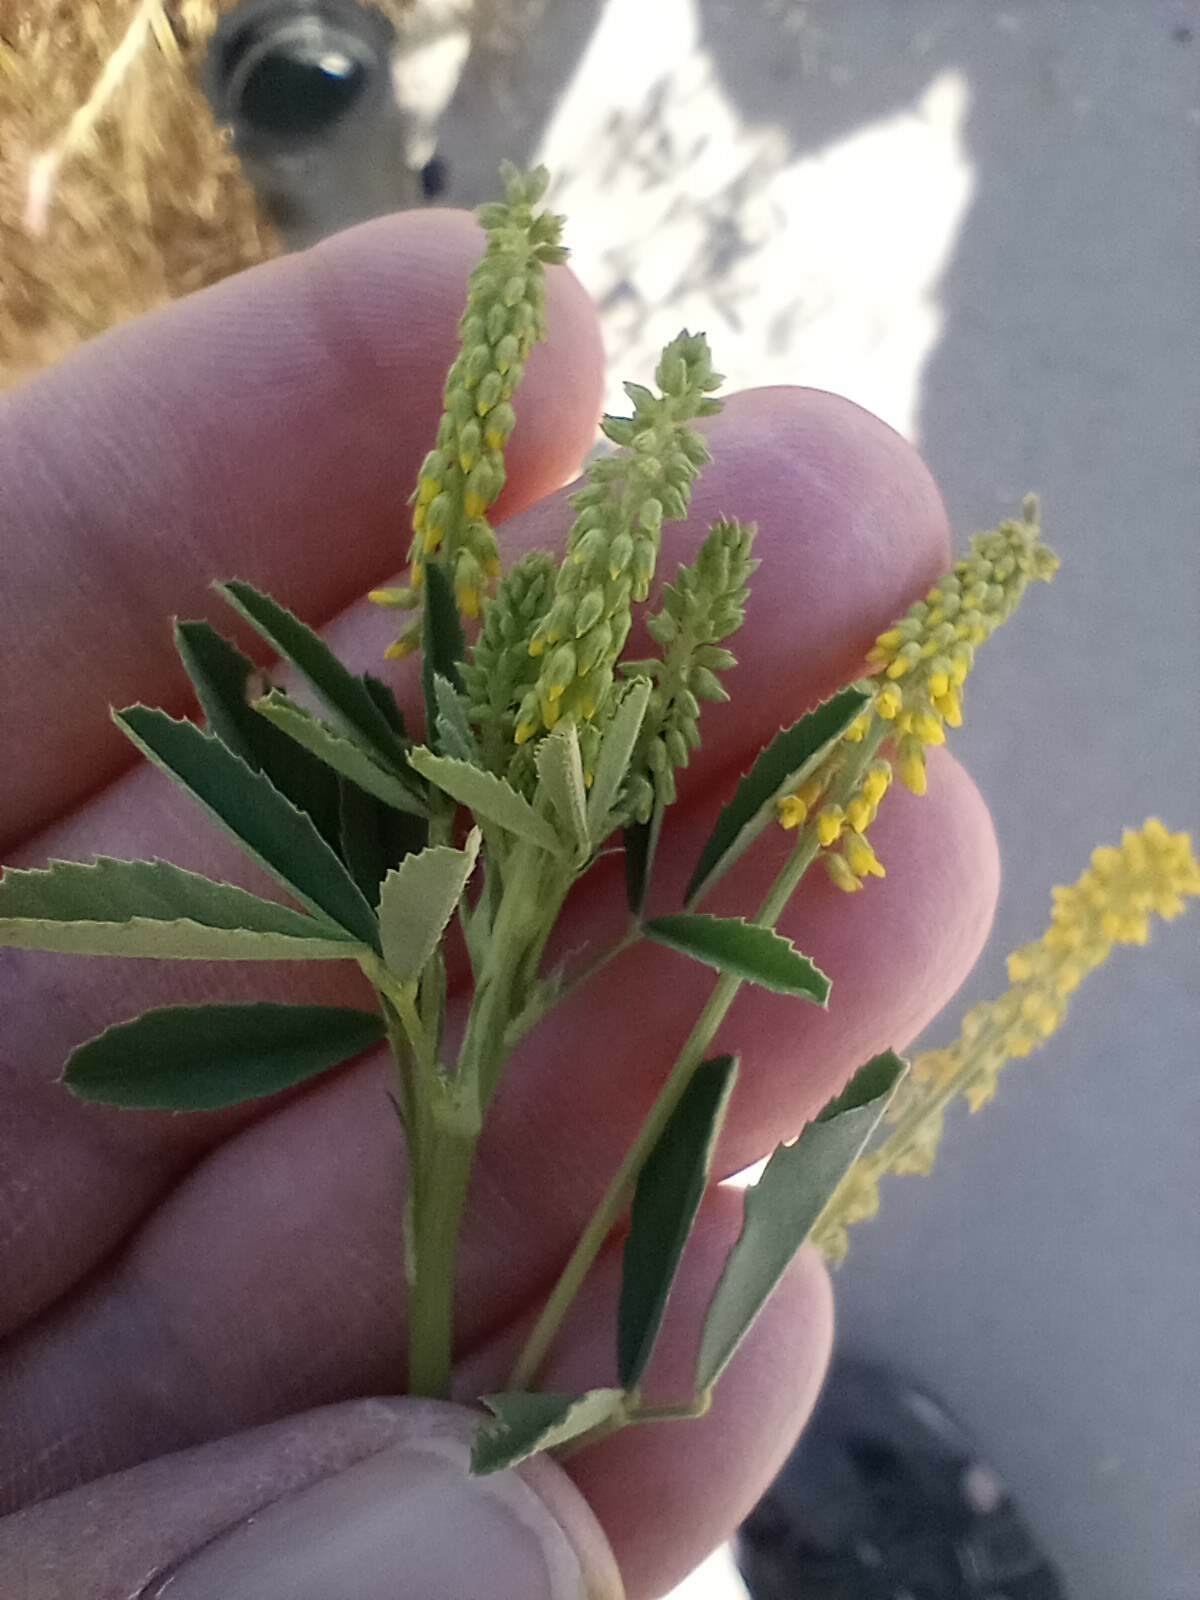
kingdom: Plantae
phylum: Tracheophyta
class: Magnoliopsida
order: Fabales
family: Fabaceae
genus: Melilotus
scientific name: Melilotus indicus
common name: Small melilot
